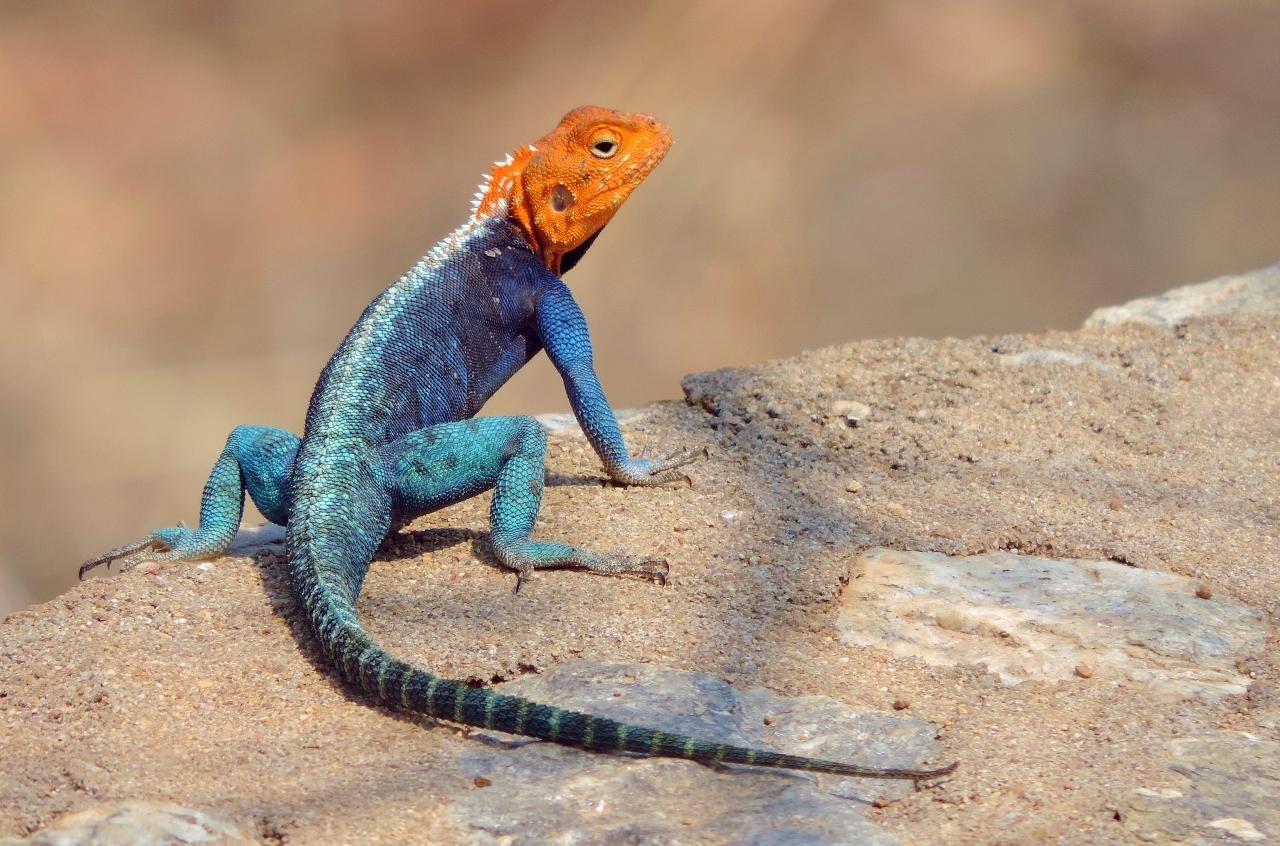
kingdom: Animalia
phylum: Chordata
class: Squamata
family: Agamidae
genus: Agama
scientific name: Agama kirkii
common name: Kirk's rock agama
